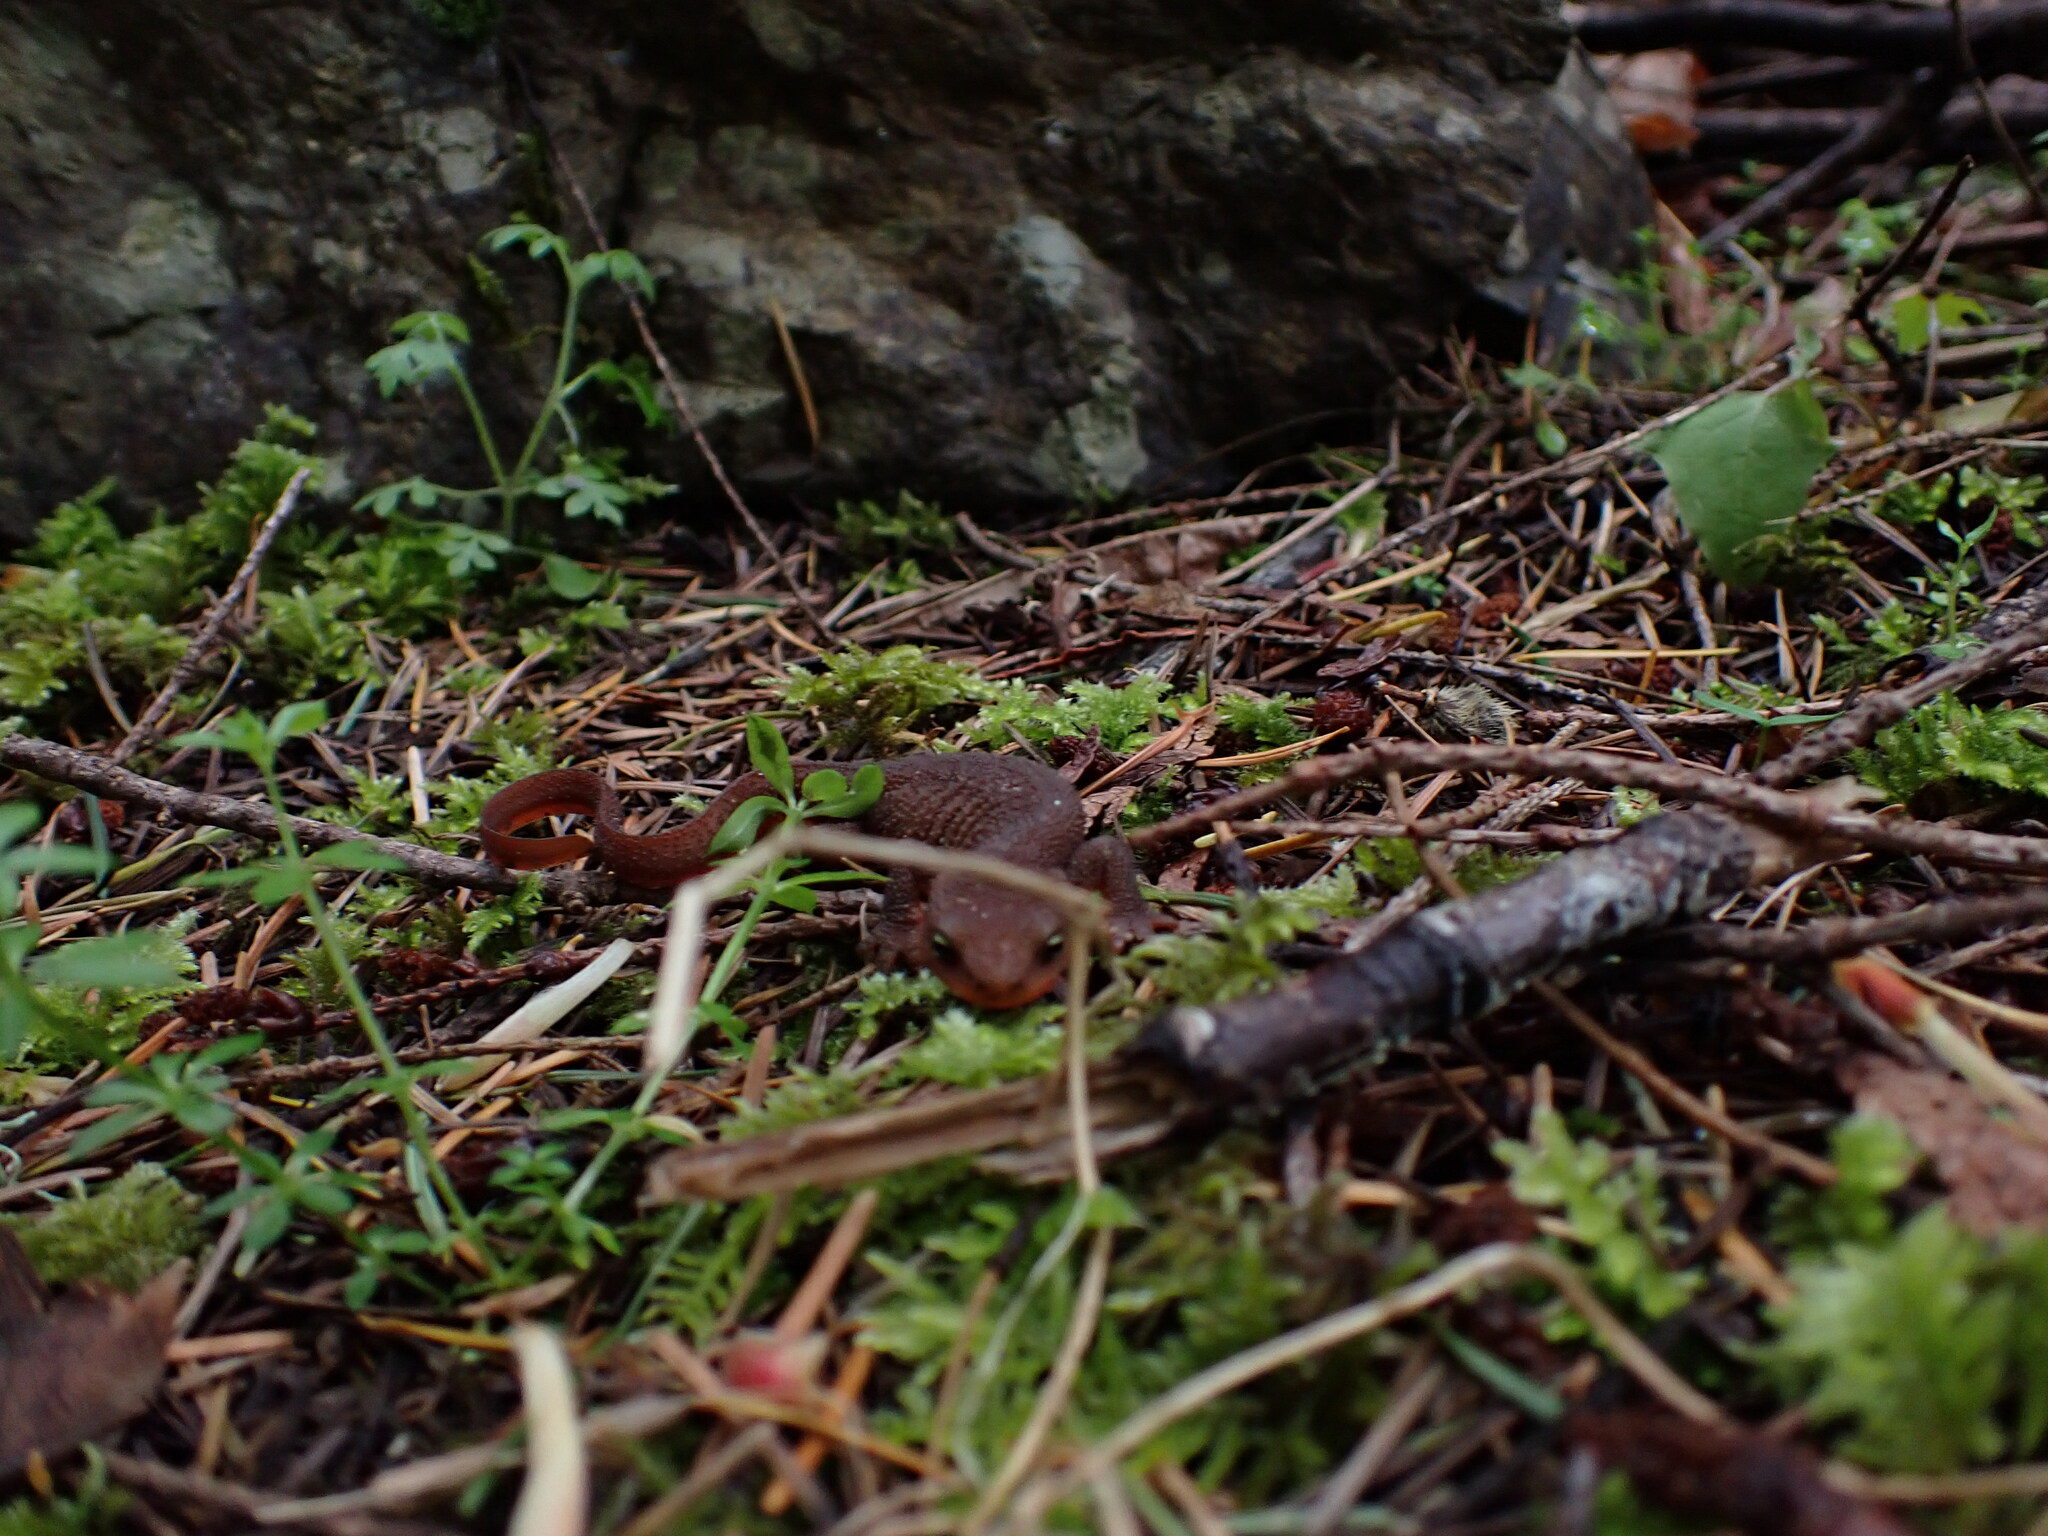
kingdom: Animalia
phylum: Chordata
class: Amphibia
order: Caudata
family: Salamandridae
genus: Taricha
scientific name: Taricha granulosa
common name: Roughskin newt
